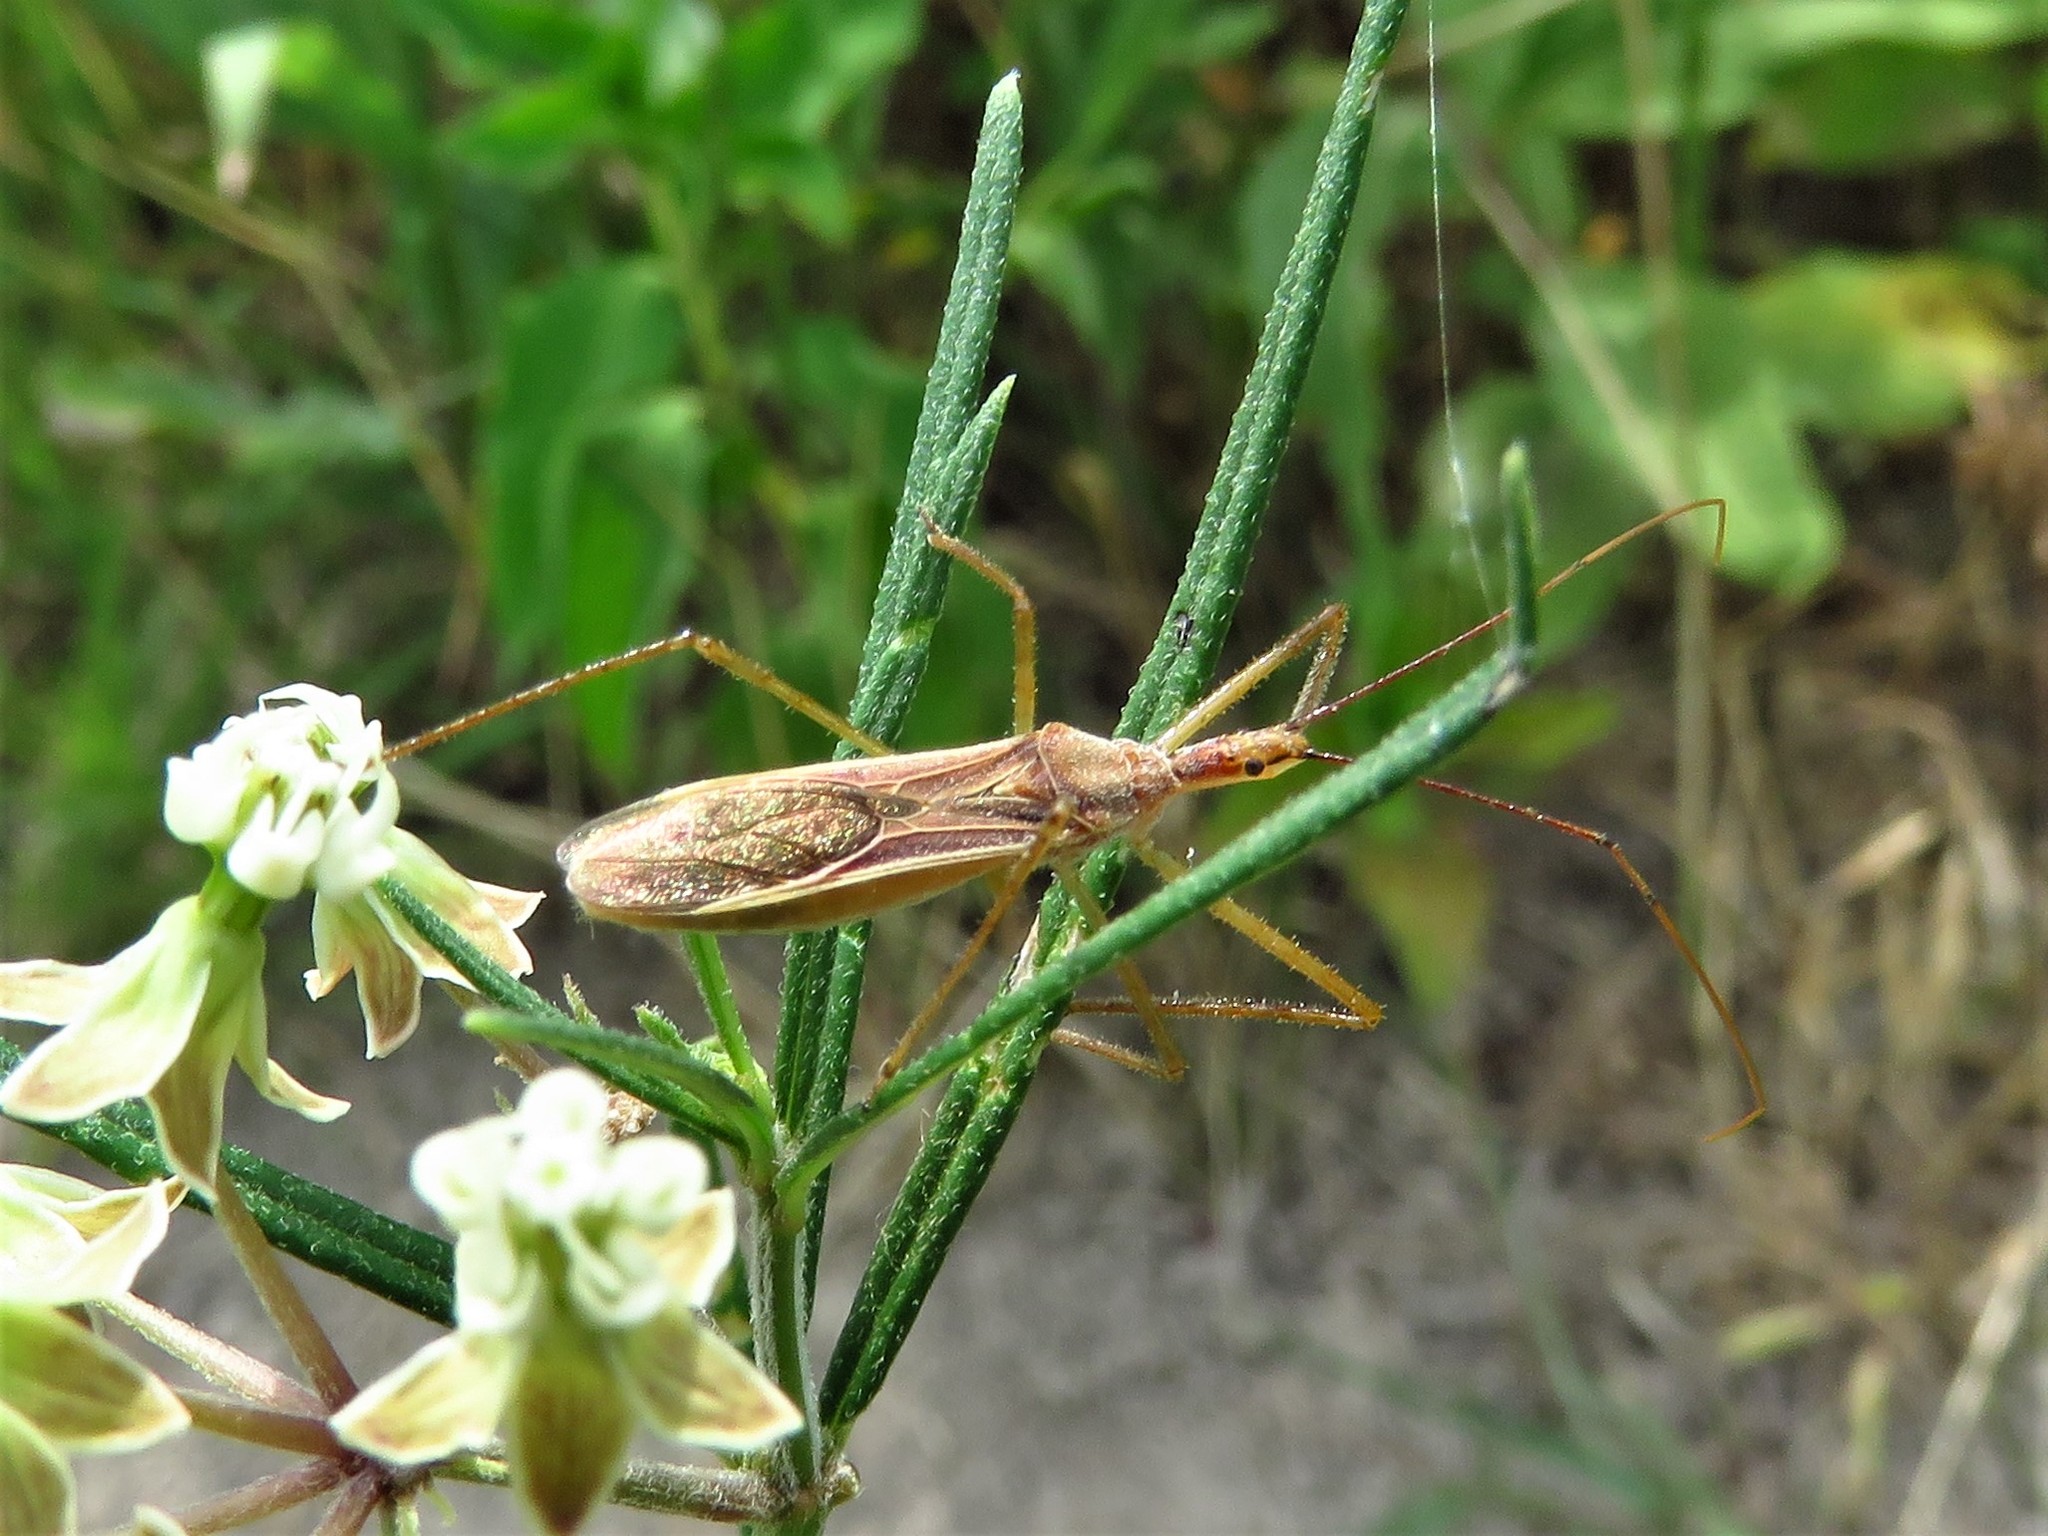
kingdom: Animalia
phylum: Arthropoda
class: Insecta
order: Hemiptera
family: Reduviidae
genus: Zelus
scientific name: Zelus cervicalis
